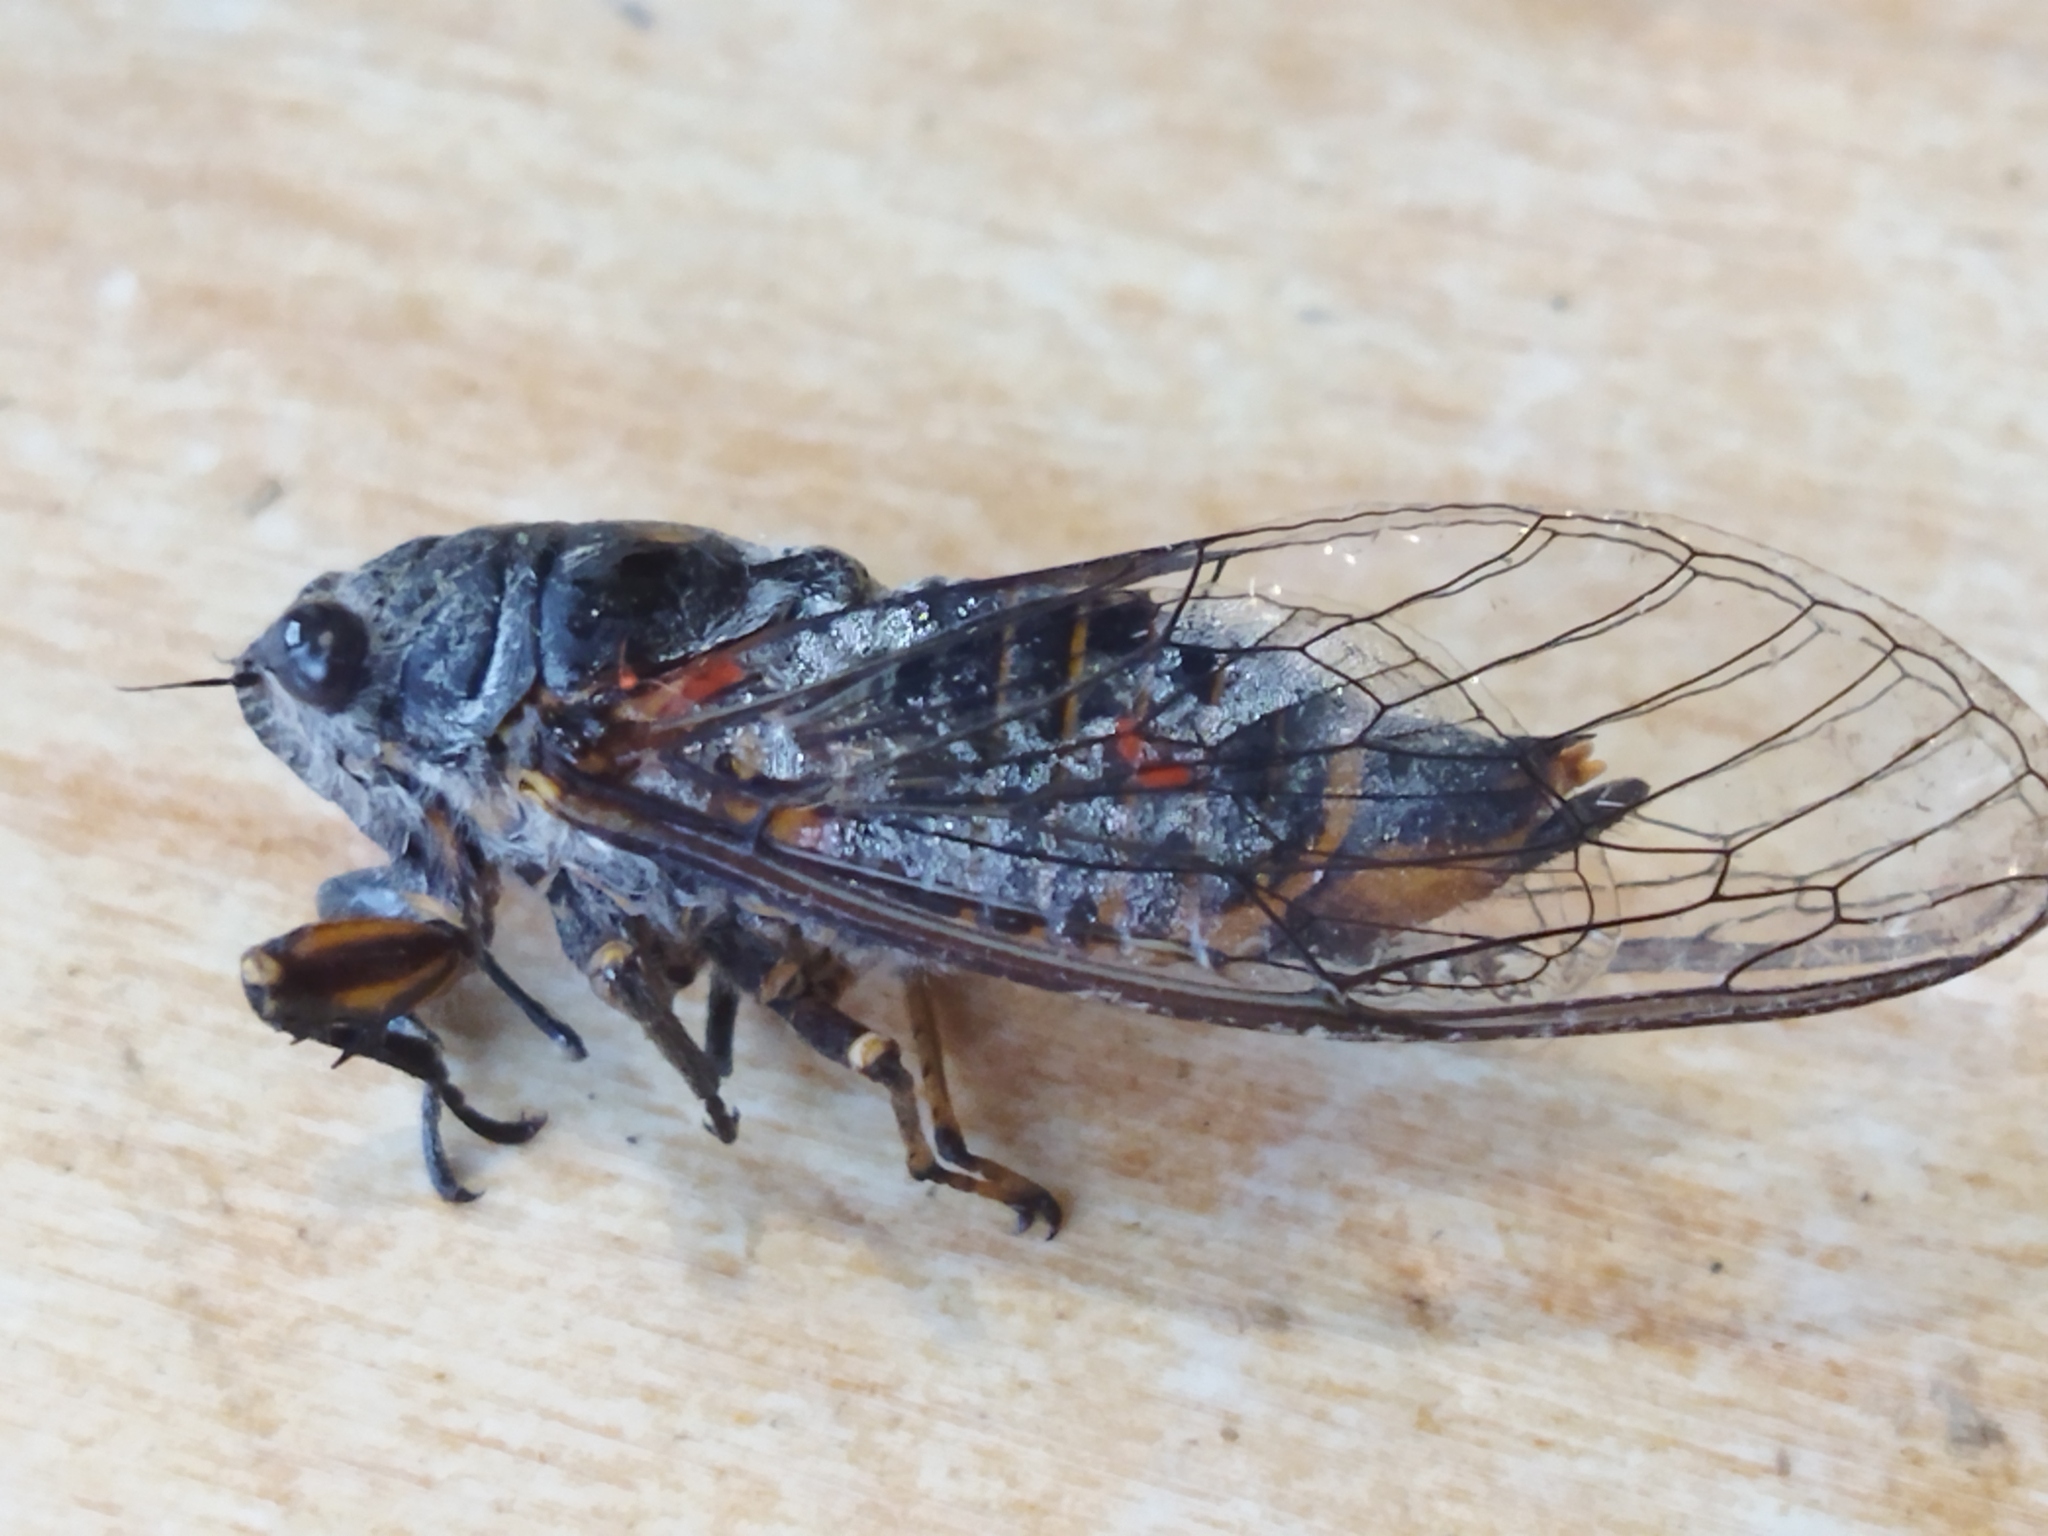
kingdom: Animalia
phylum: Arthropoda
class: Insecta
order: Hemiptera
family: Cicadidae
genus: Dimissalna
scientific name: Dimissalna dimissa
